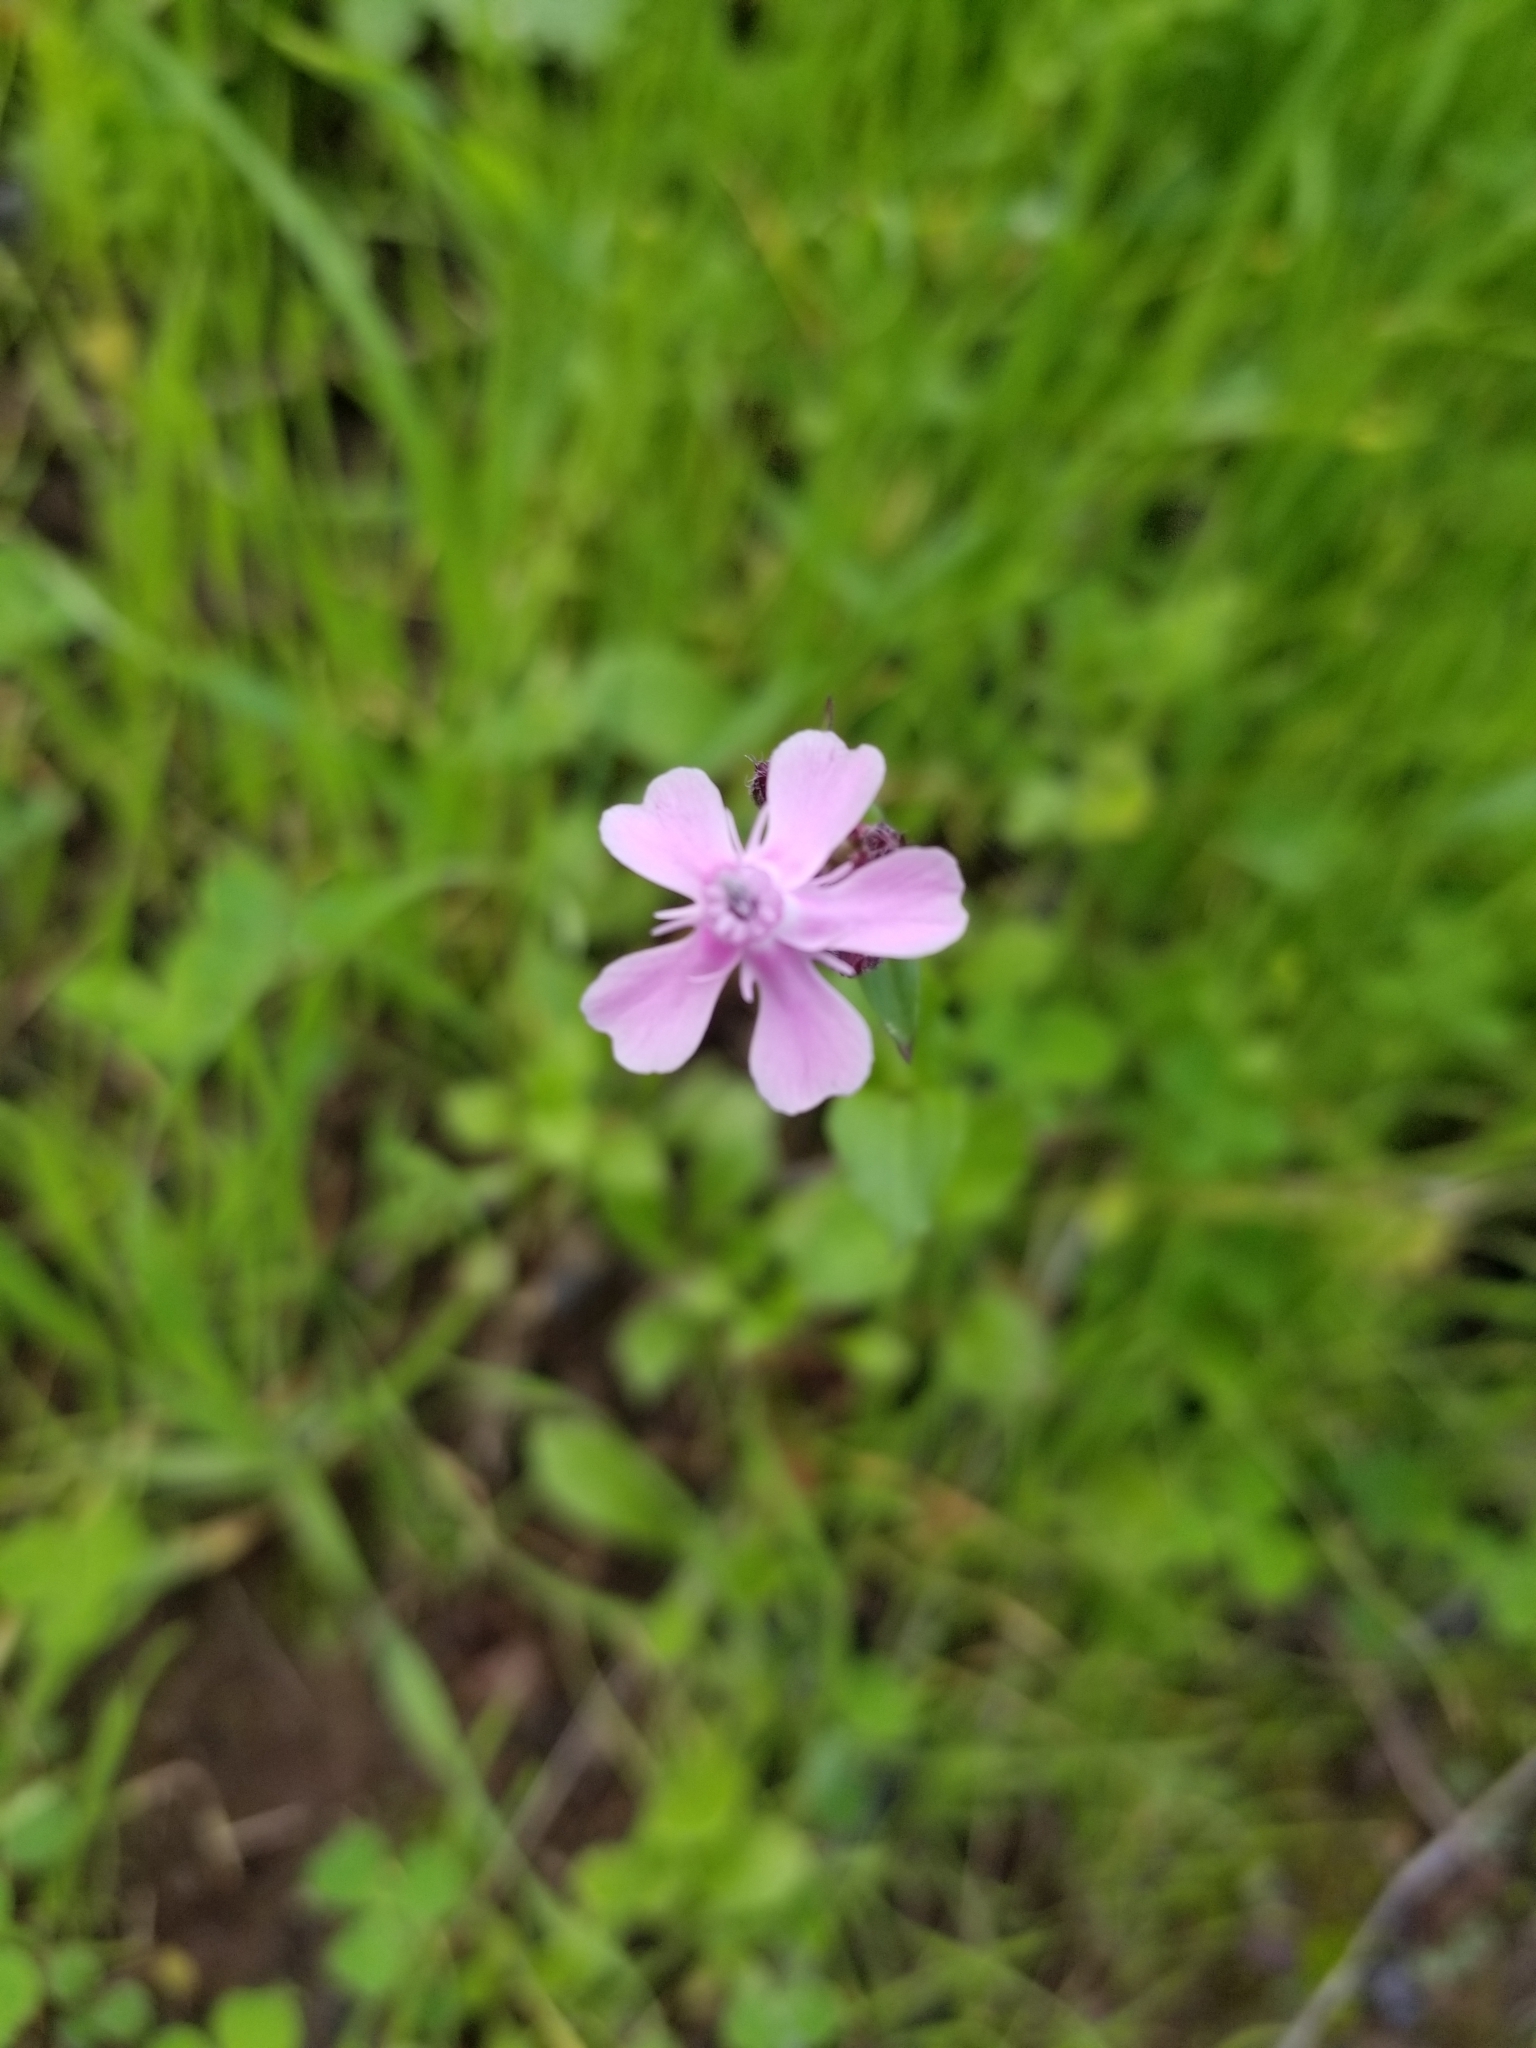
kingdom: Plantae
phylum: Tracheophyta
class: Magnoliopsida
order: Caryophyllales
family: Caryophyllaceae
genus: Silene
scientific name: Silene aegyptiaca
